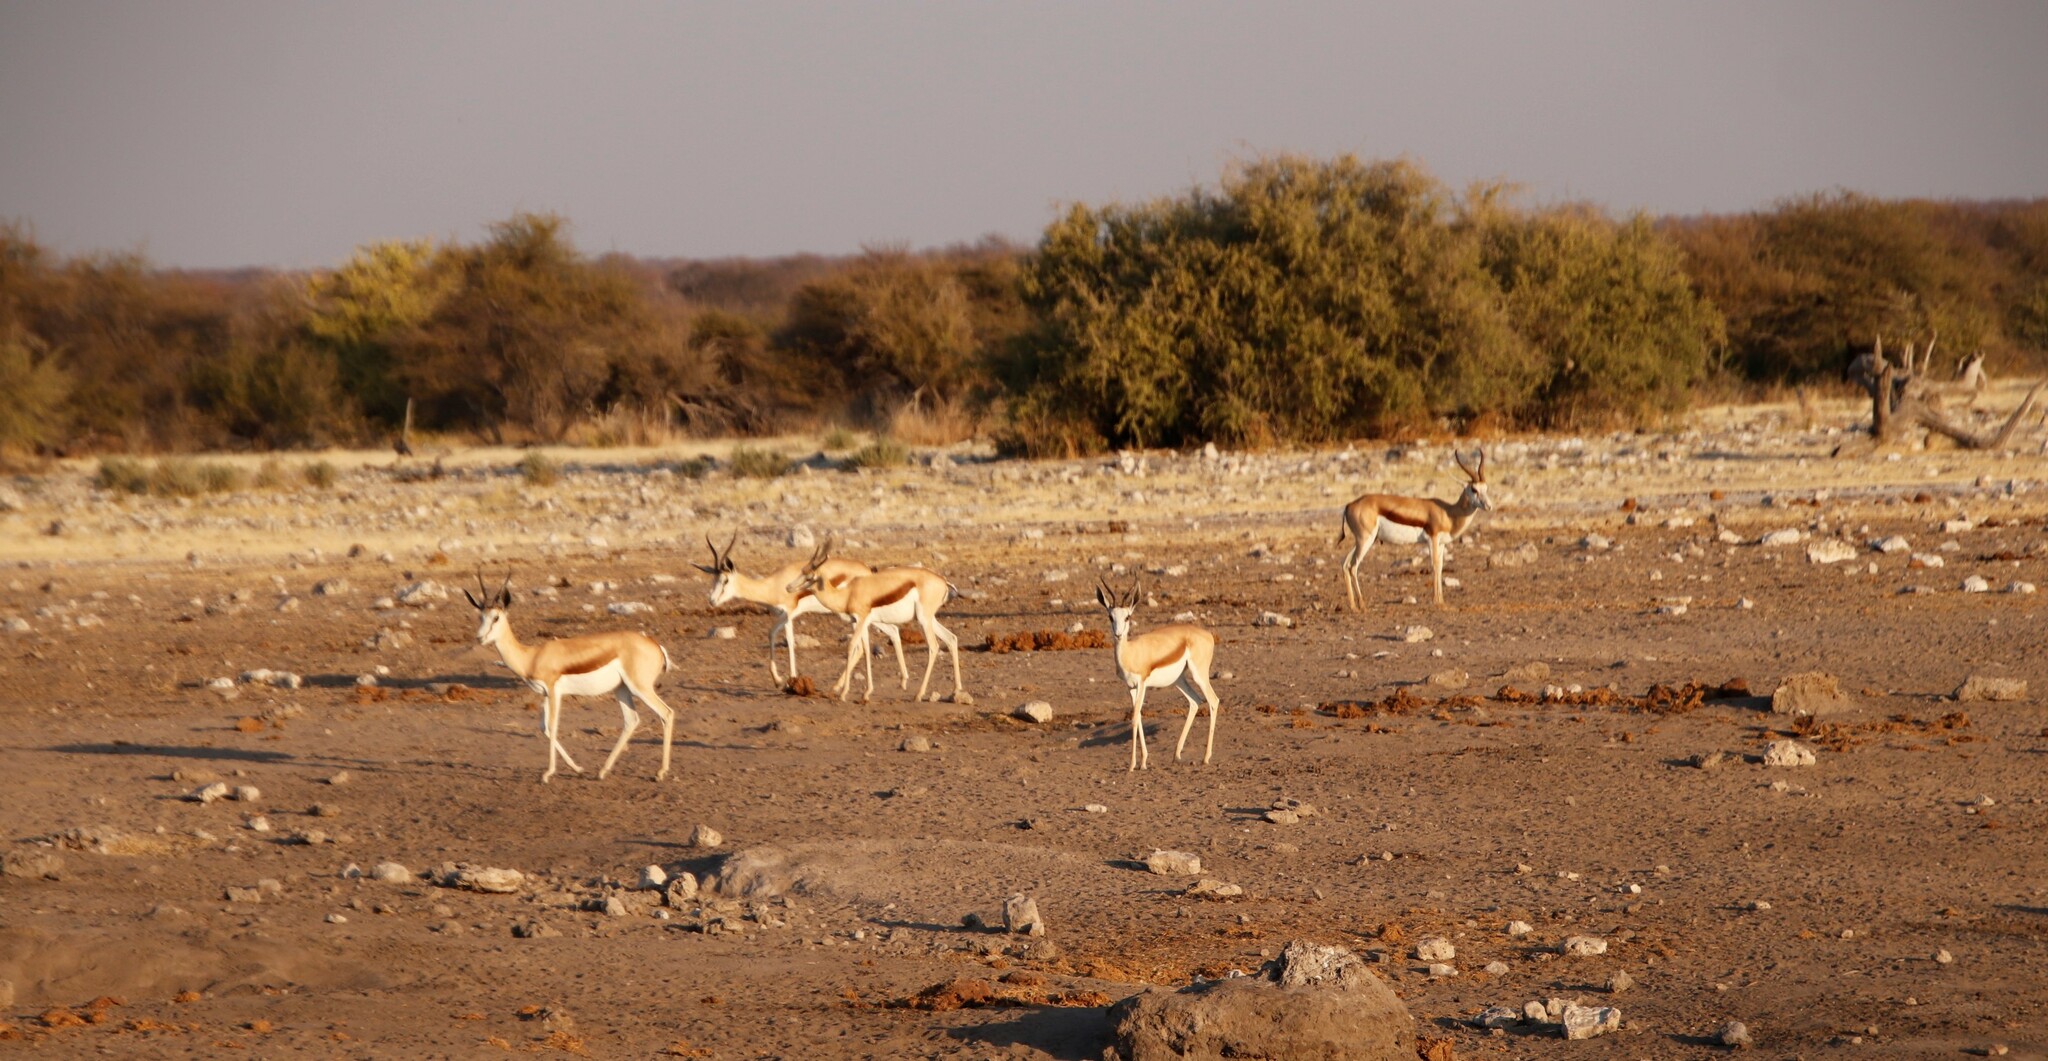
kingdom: Animalia
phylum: Chordata
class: Mammalia
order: Artiodactyla
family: Bovidae
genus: Antidorcas
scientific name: Antidorcas marsupialis
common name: Springbok
